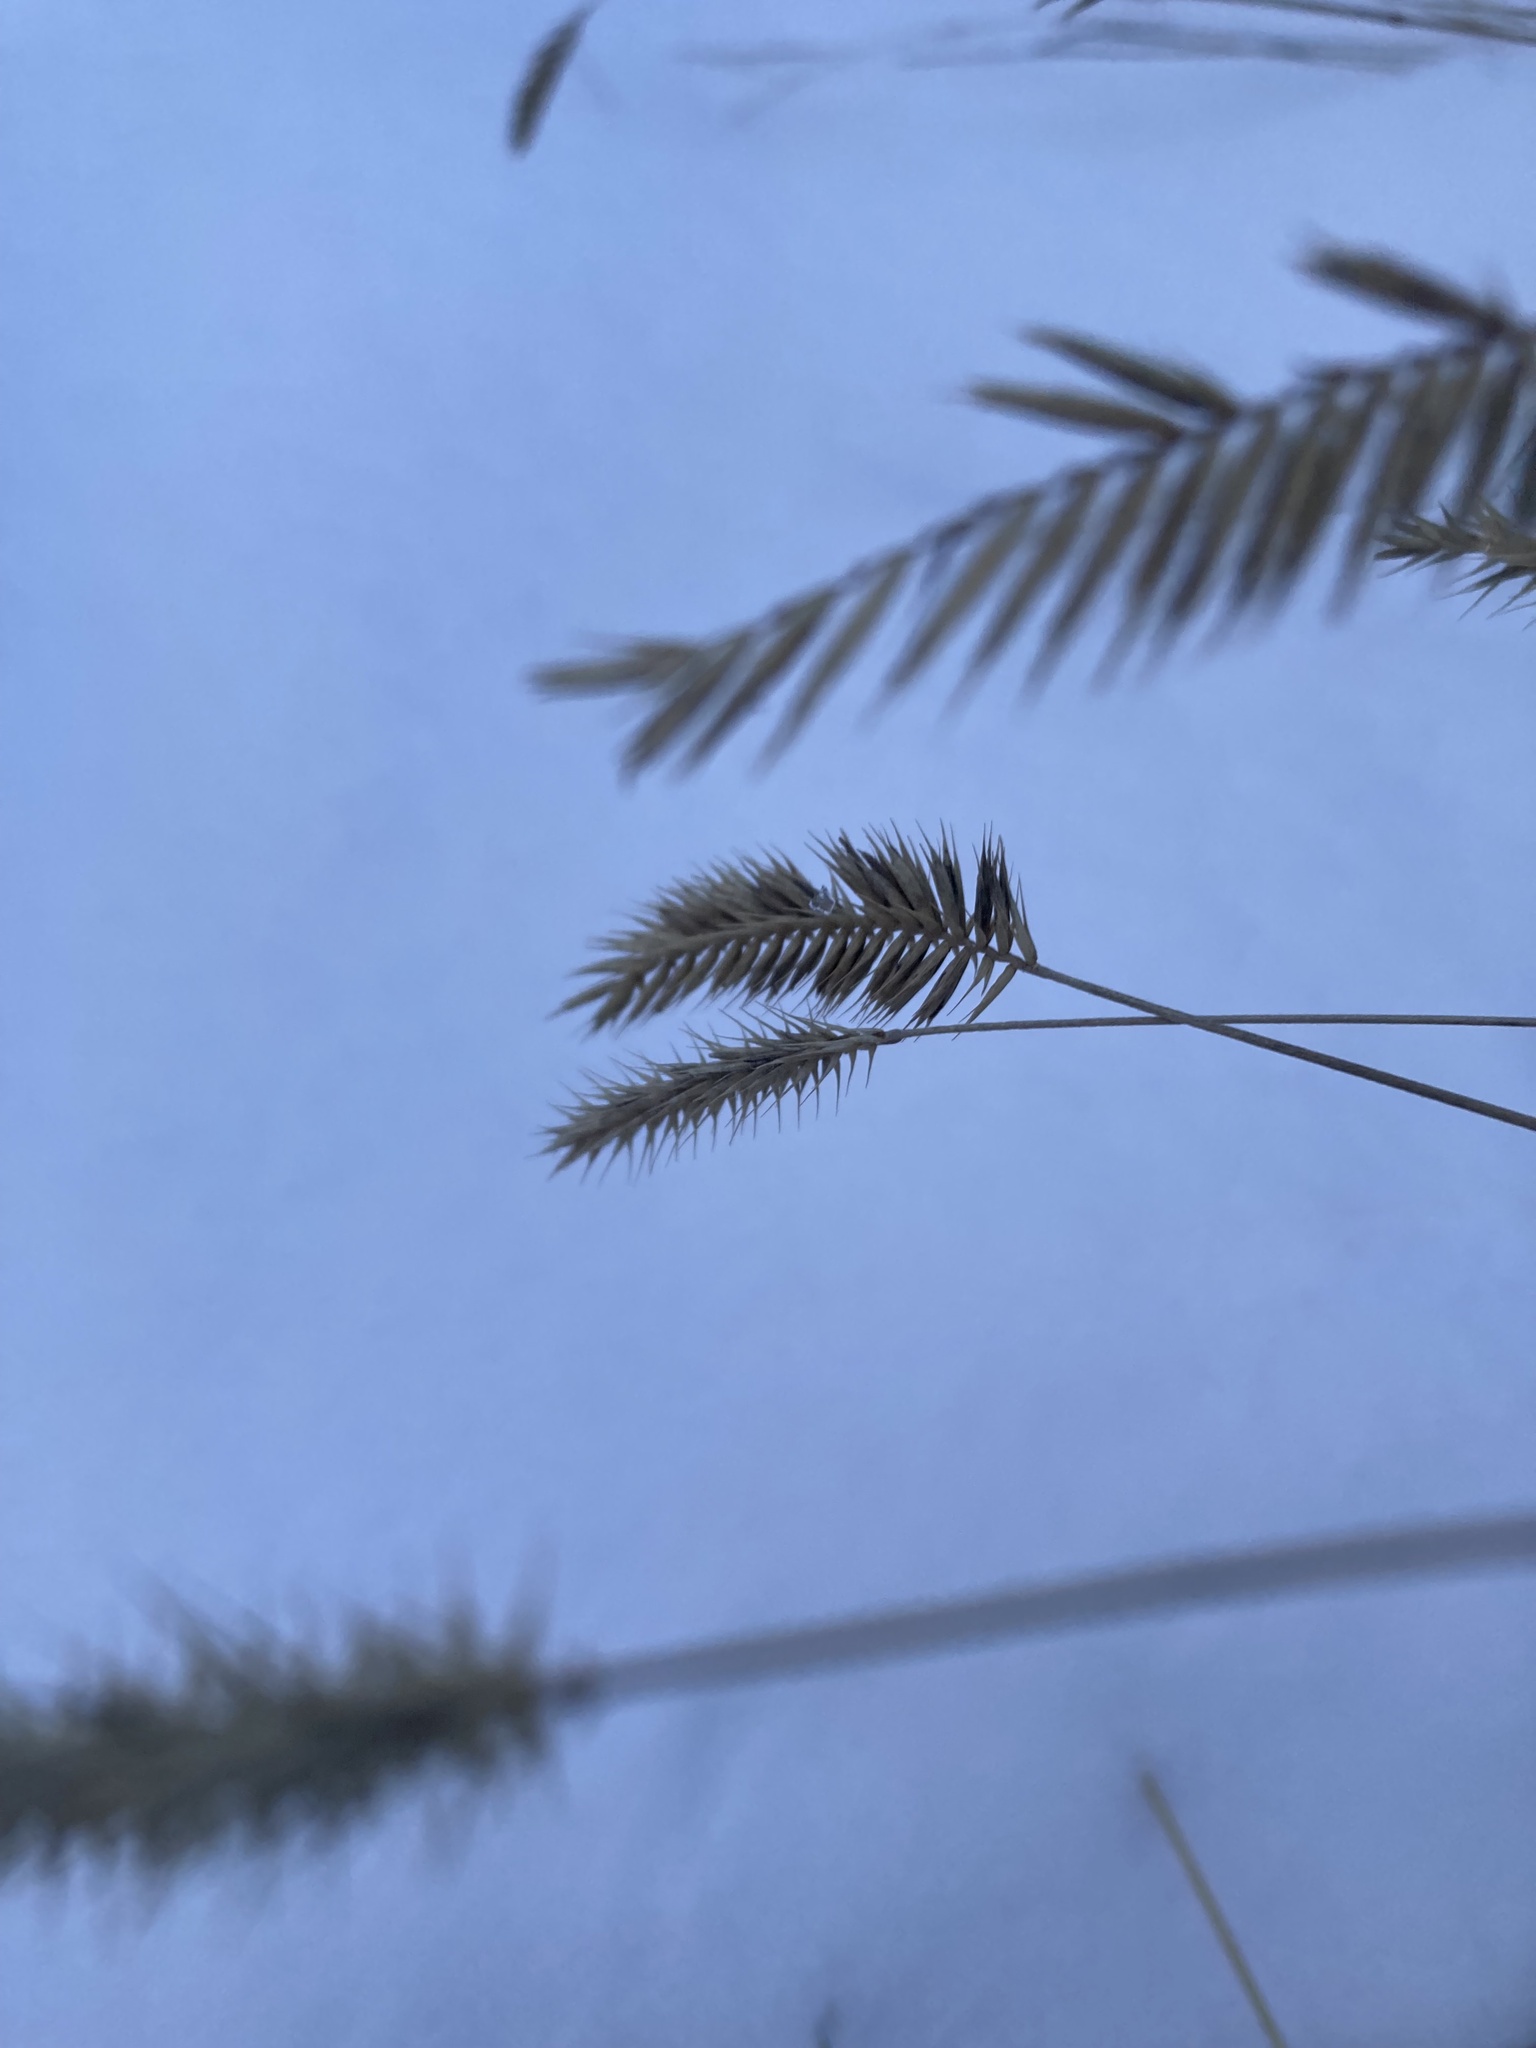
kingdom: Plantae
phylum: Tracheophyta
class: Liliopsida
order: Poales
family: Poaceae
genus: Agropyron
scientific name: Agropyron cristatum
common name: Crested wheatgrass
